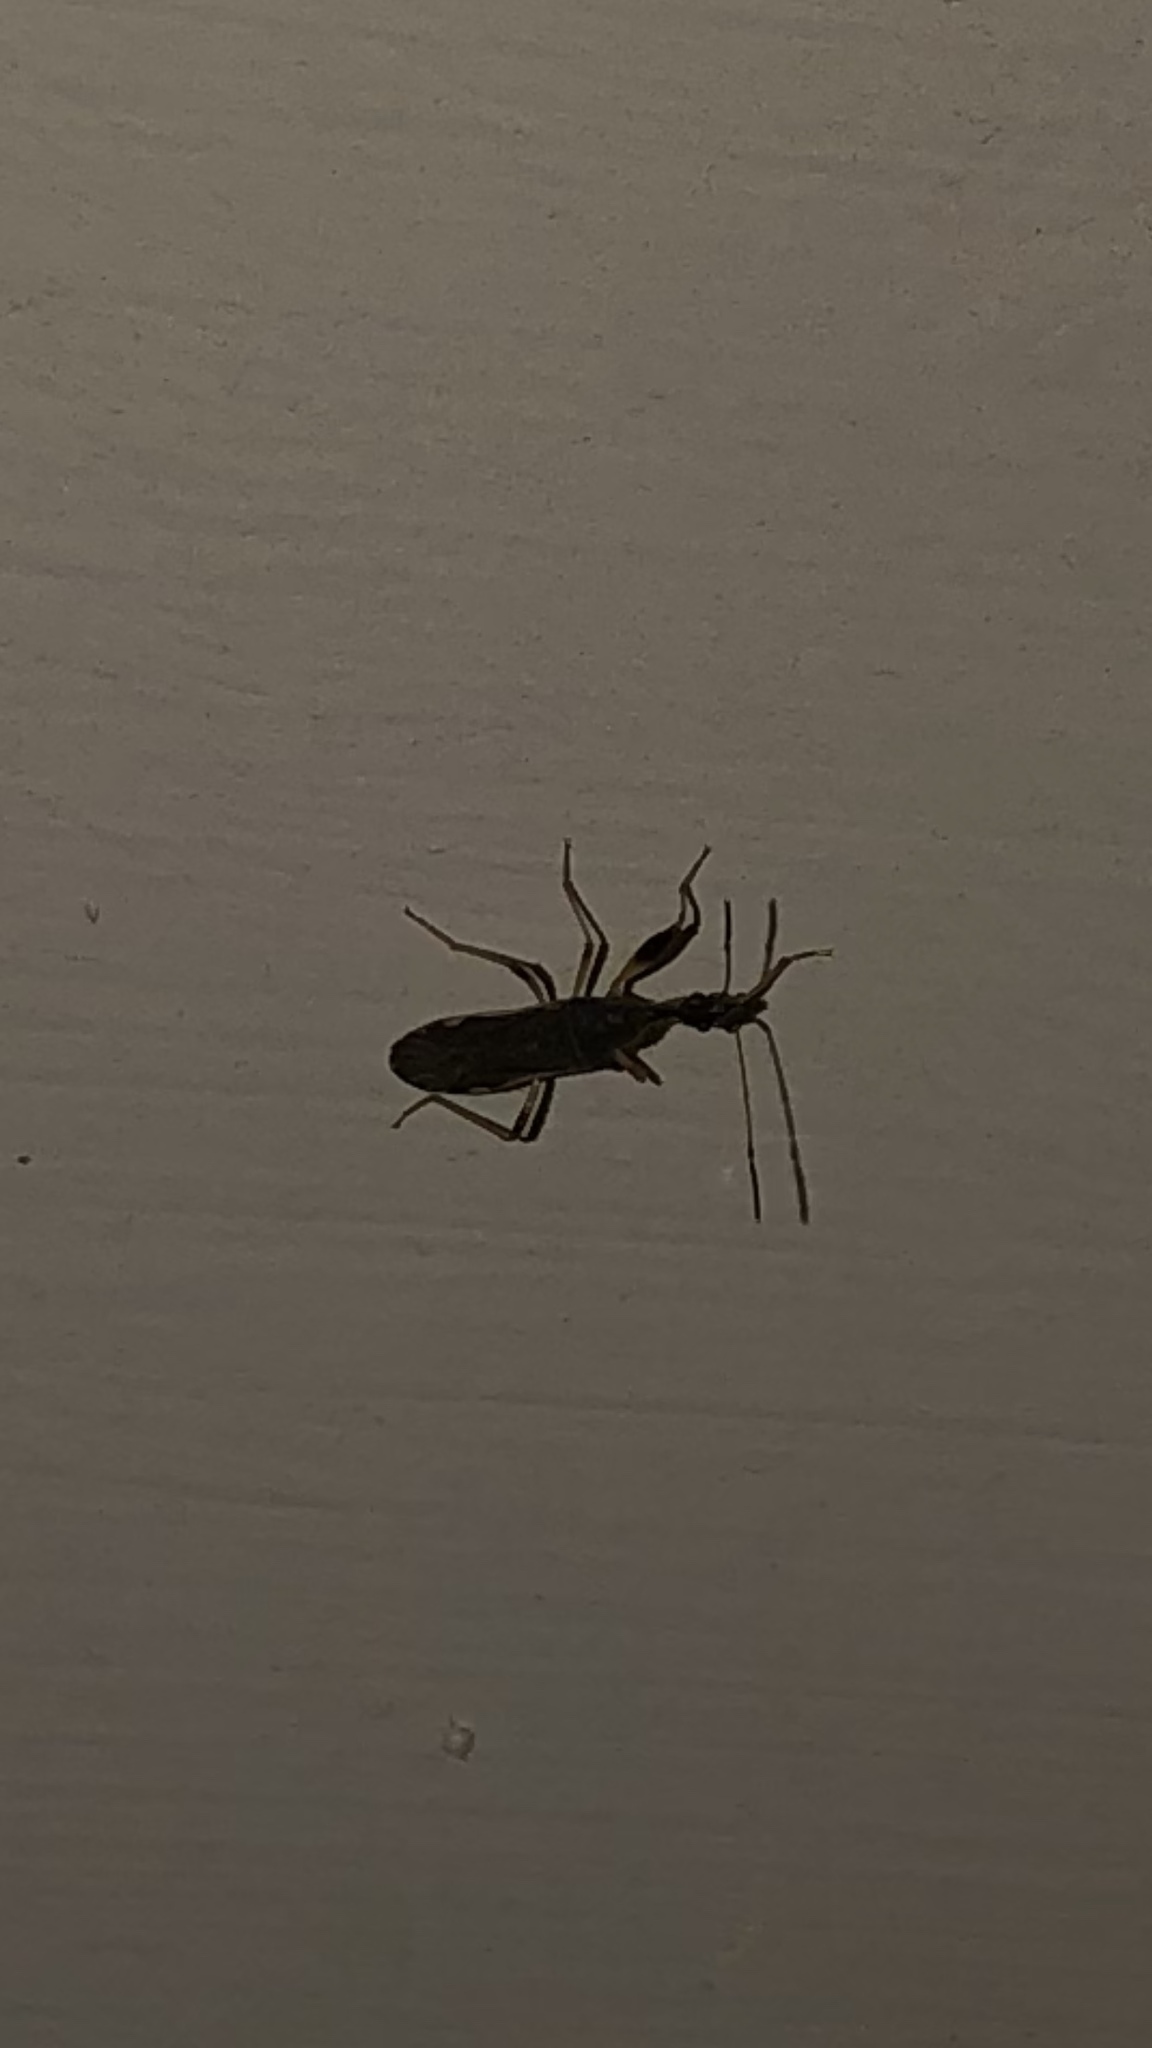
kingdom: Animalia
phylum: Arthropoda
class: Insecta
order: Hemiptera
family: Rhyparochromidae
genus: Myodocha
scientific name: Myodocha serripes
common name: Long-necked seed bug
